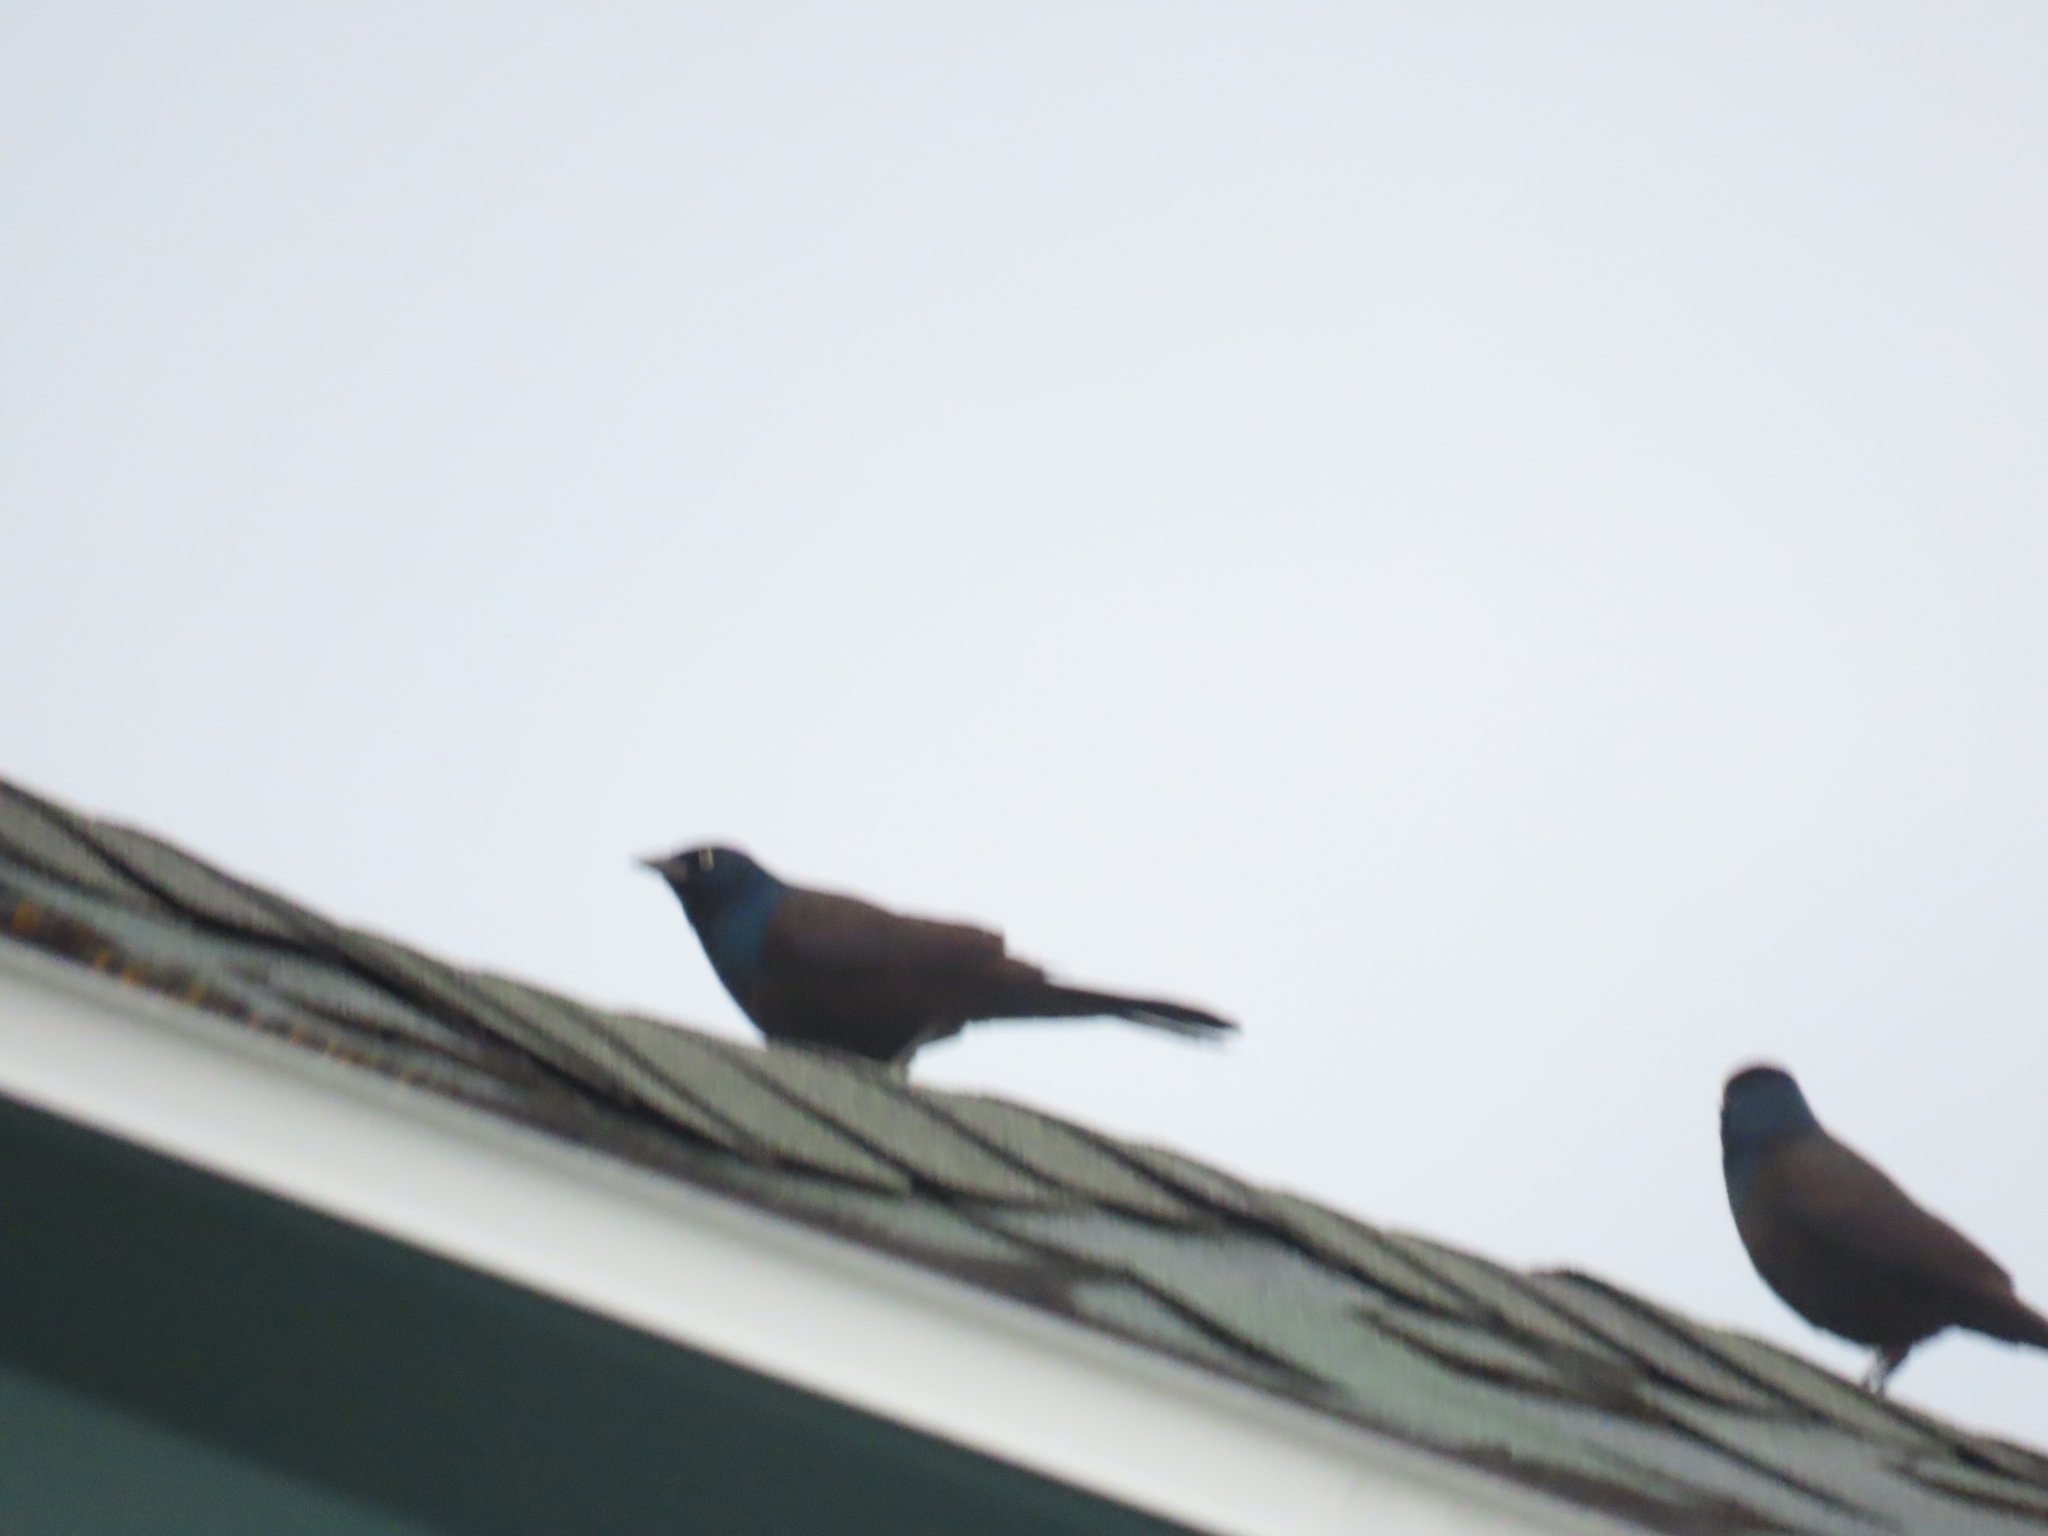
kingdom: Animalia
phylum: Chordata
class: Aves
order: Passeriformes
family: Icteridae
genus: Quiscalus
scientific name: Quiscalus quiscula
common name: Common grackle
